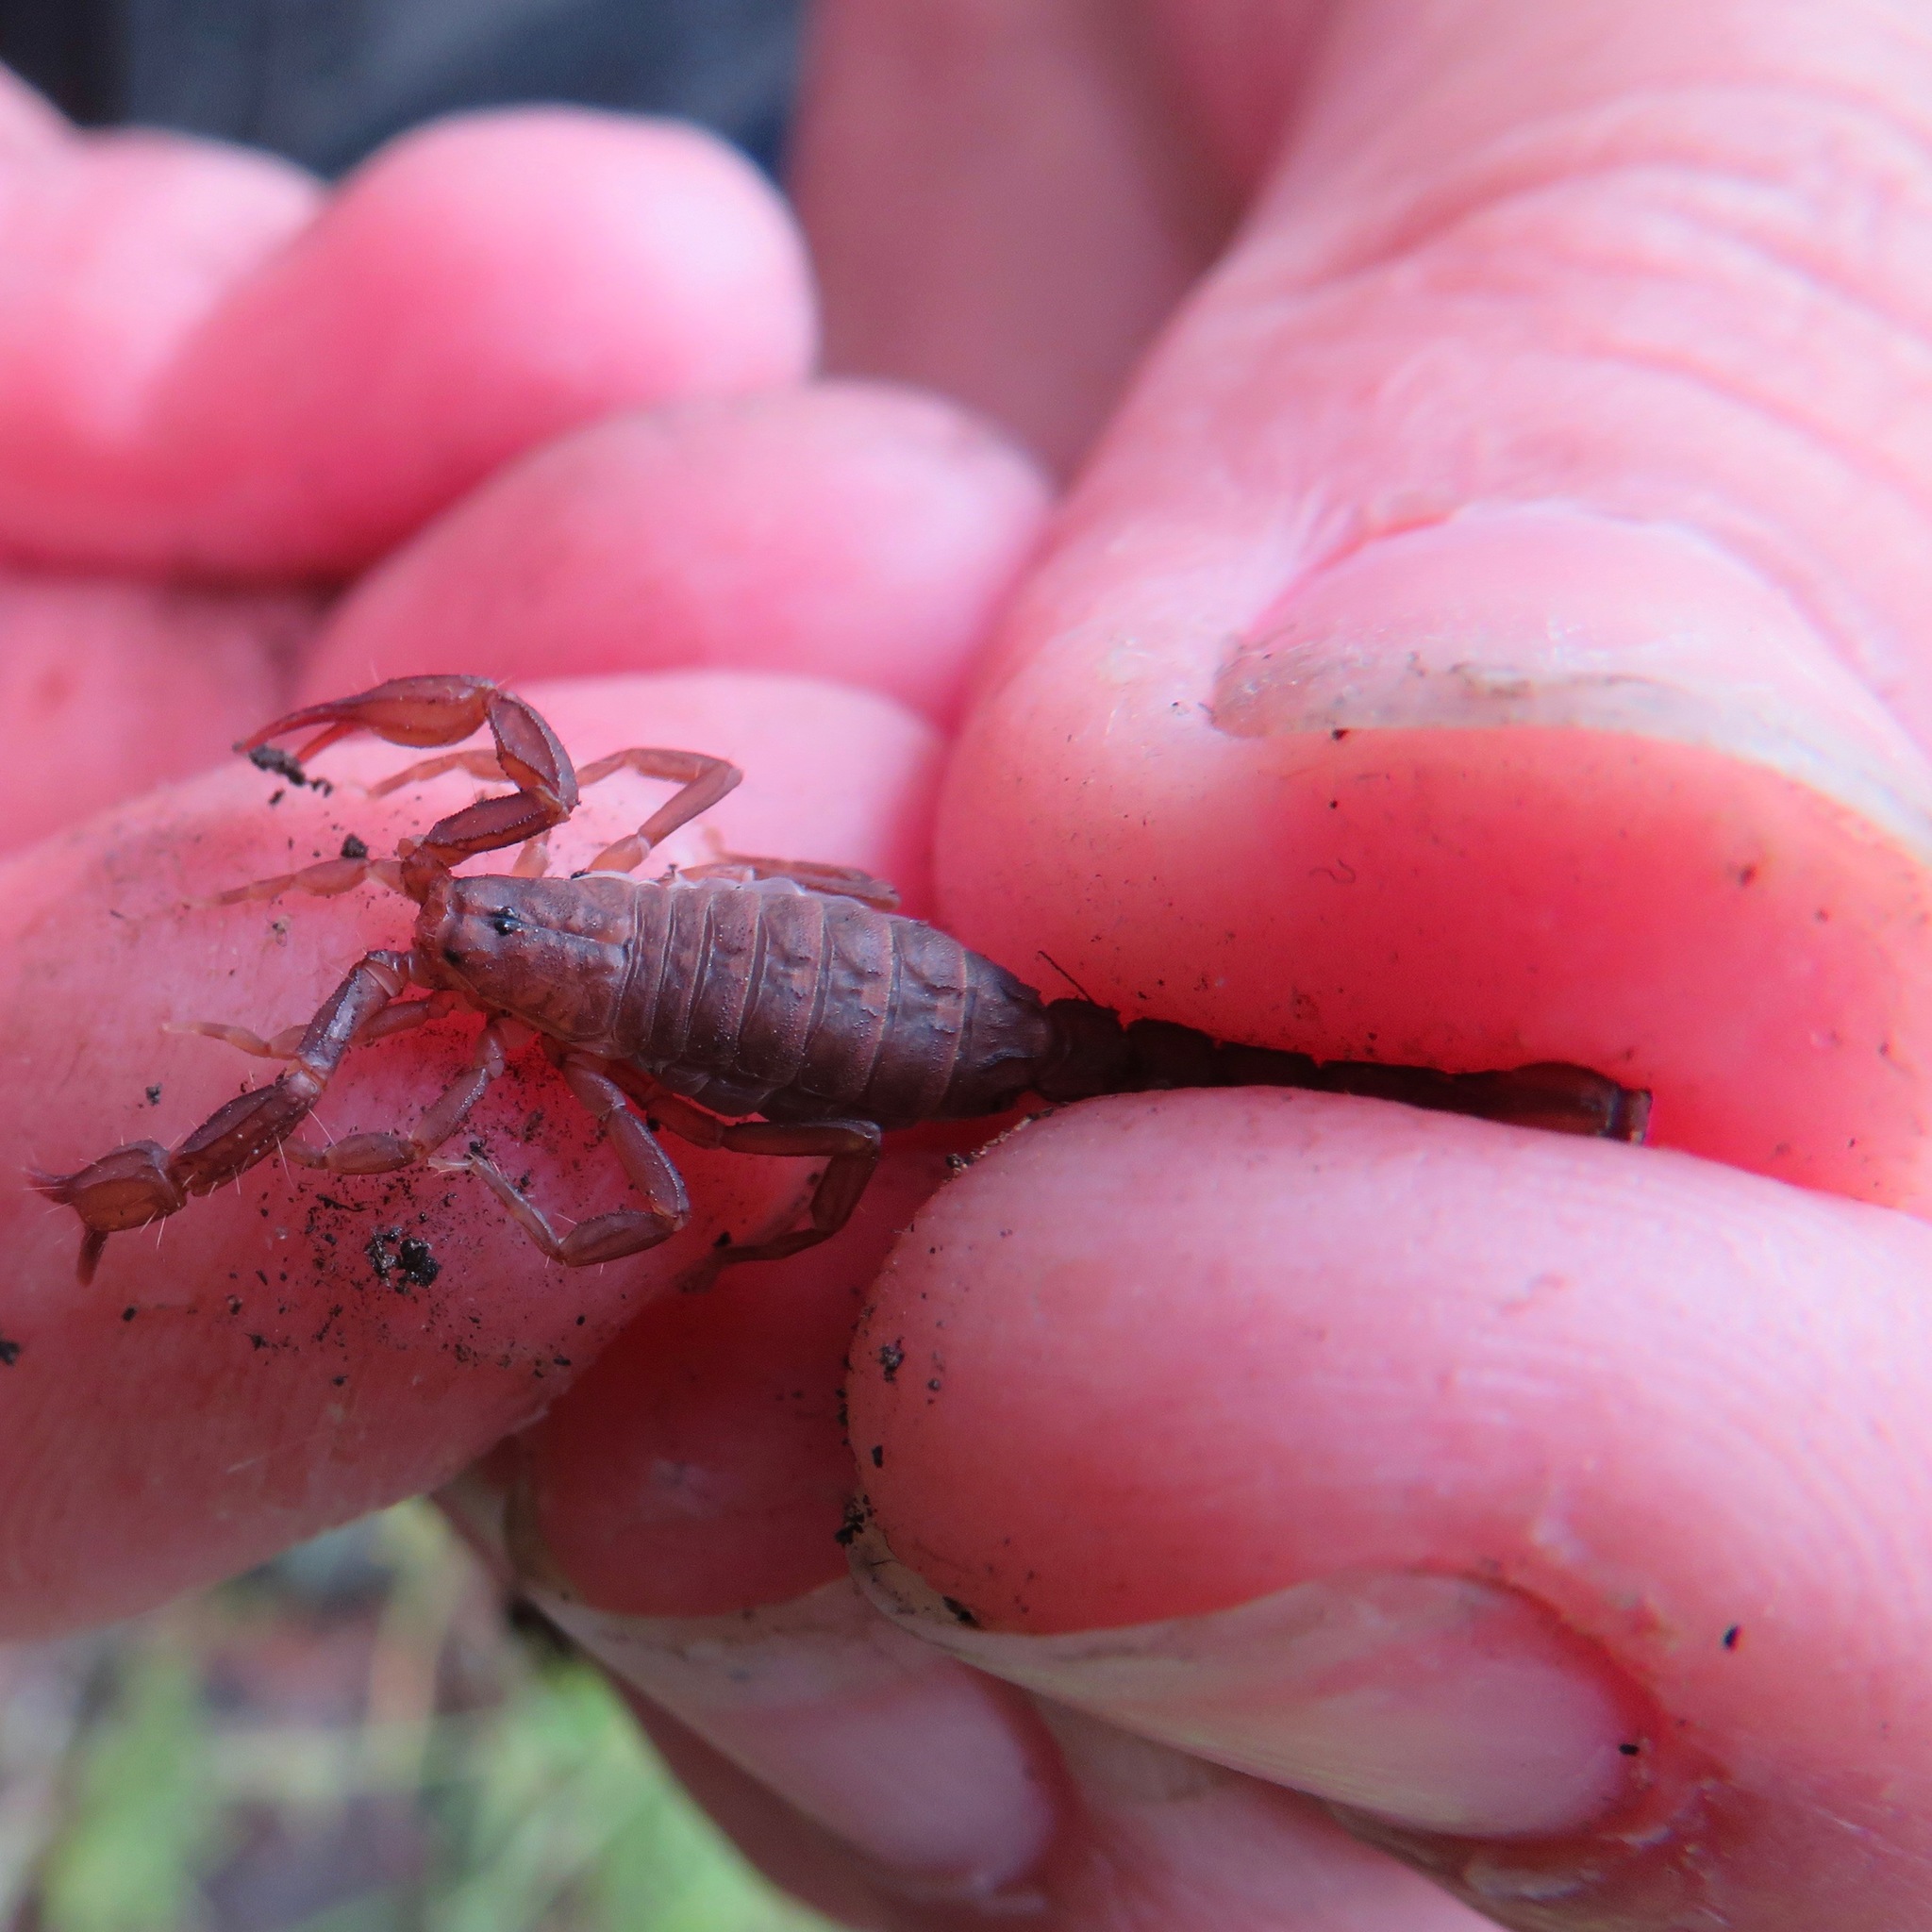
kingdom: Animalia
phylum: Arthropoda
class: Arachnida
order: Scorpiones
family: Vaejovidae
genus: Graemeloweus
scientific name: Graemeloweus iviei
